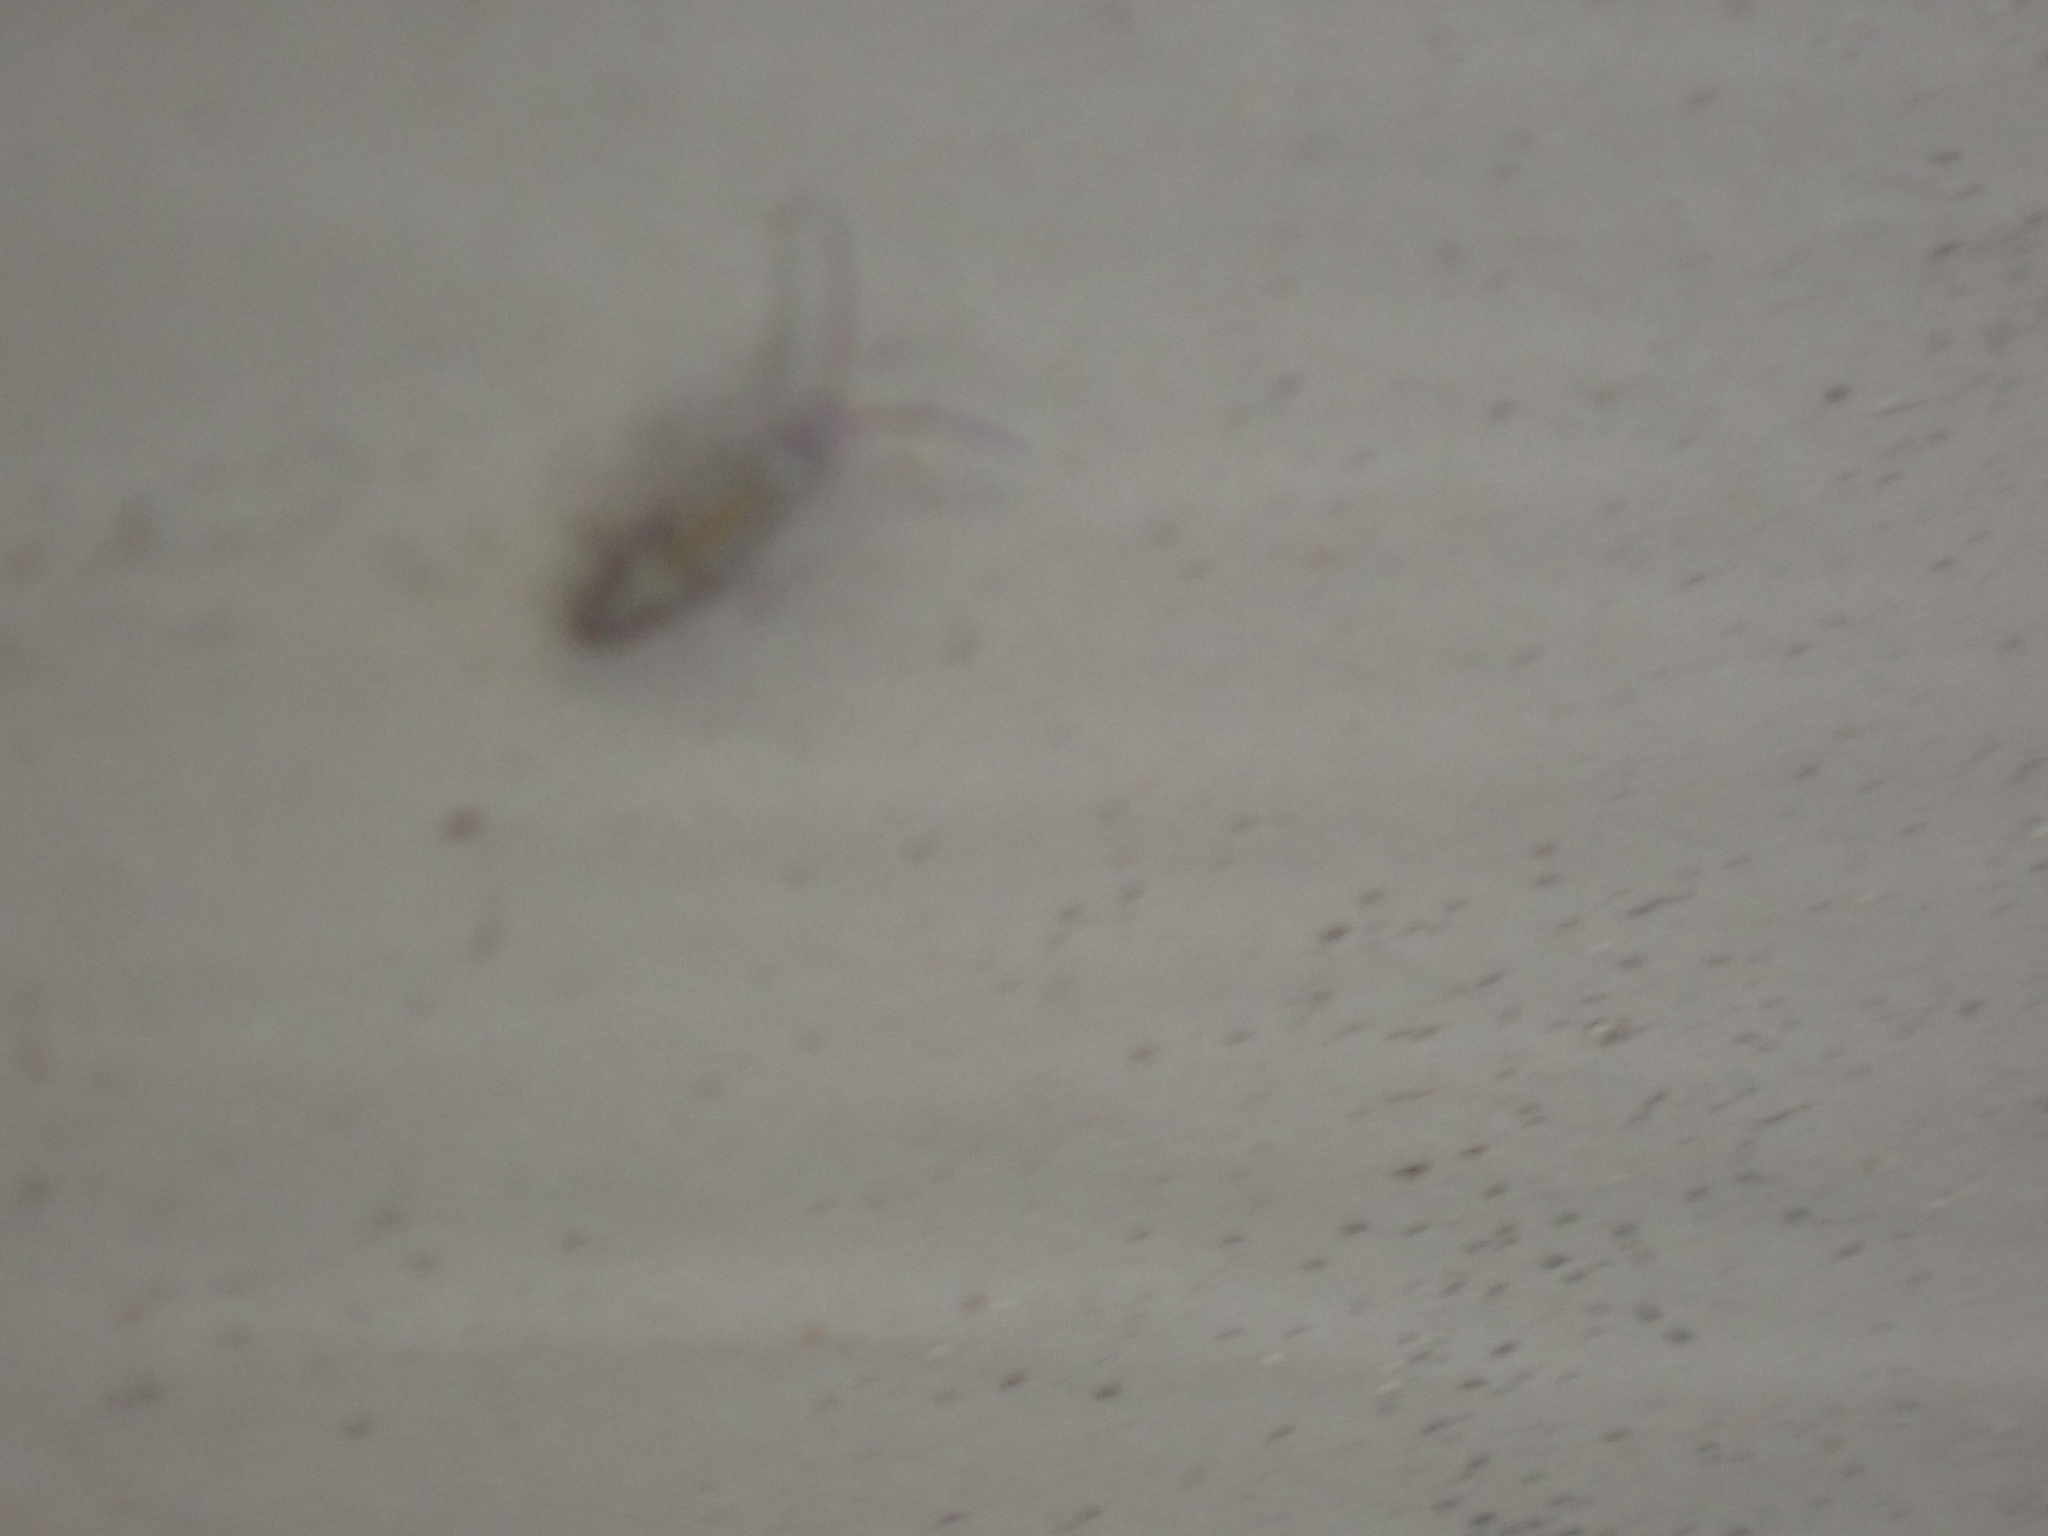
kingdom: Animalia
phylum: Arthropoda
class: Collembola
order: Entomobryomorpha
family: Entomobryidae
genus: Willowsia
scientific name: Willowsia nigromaculata
